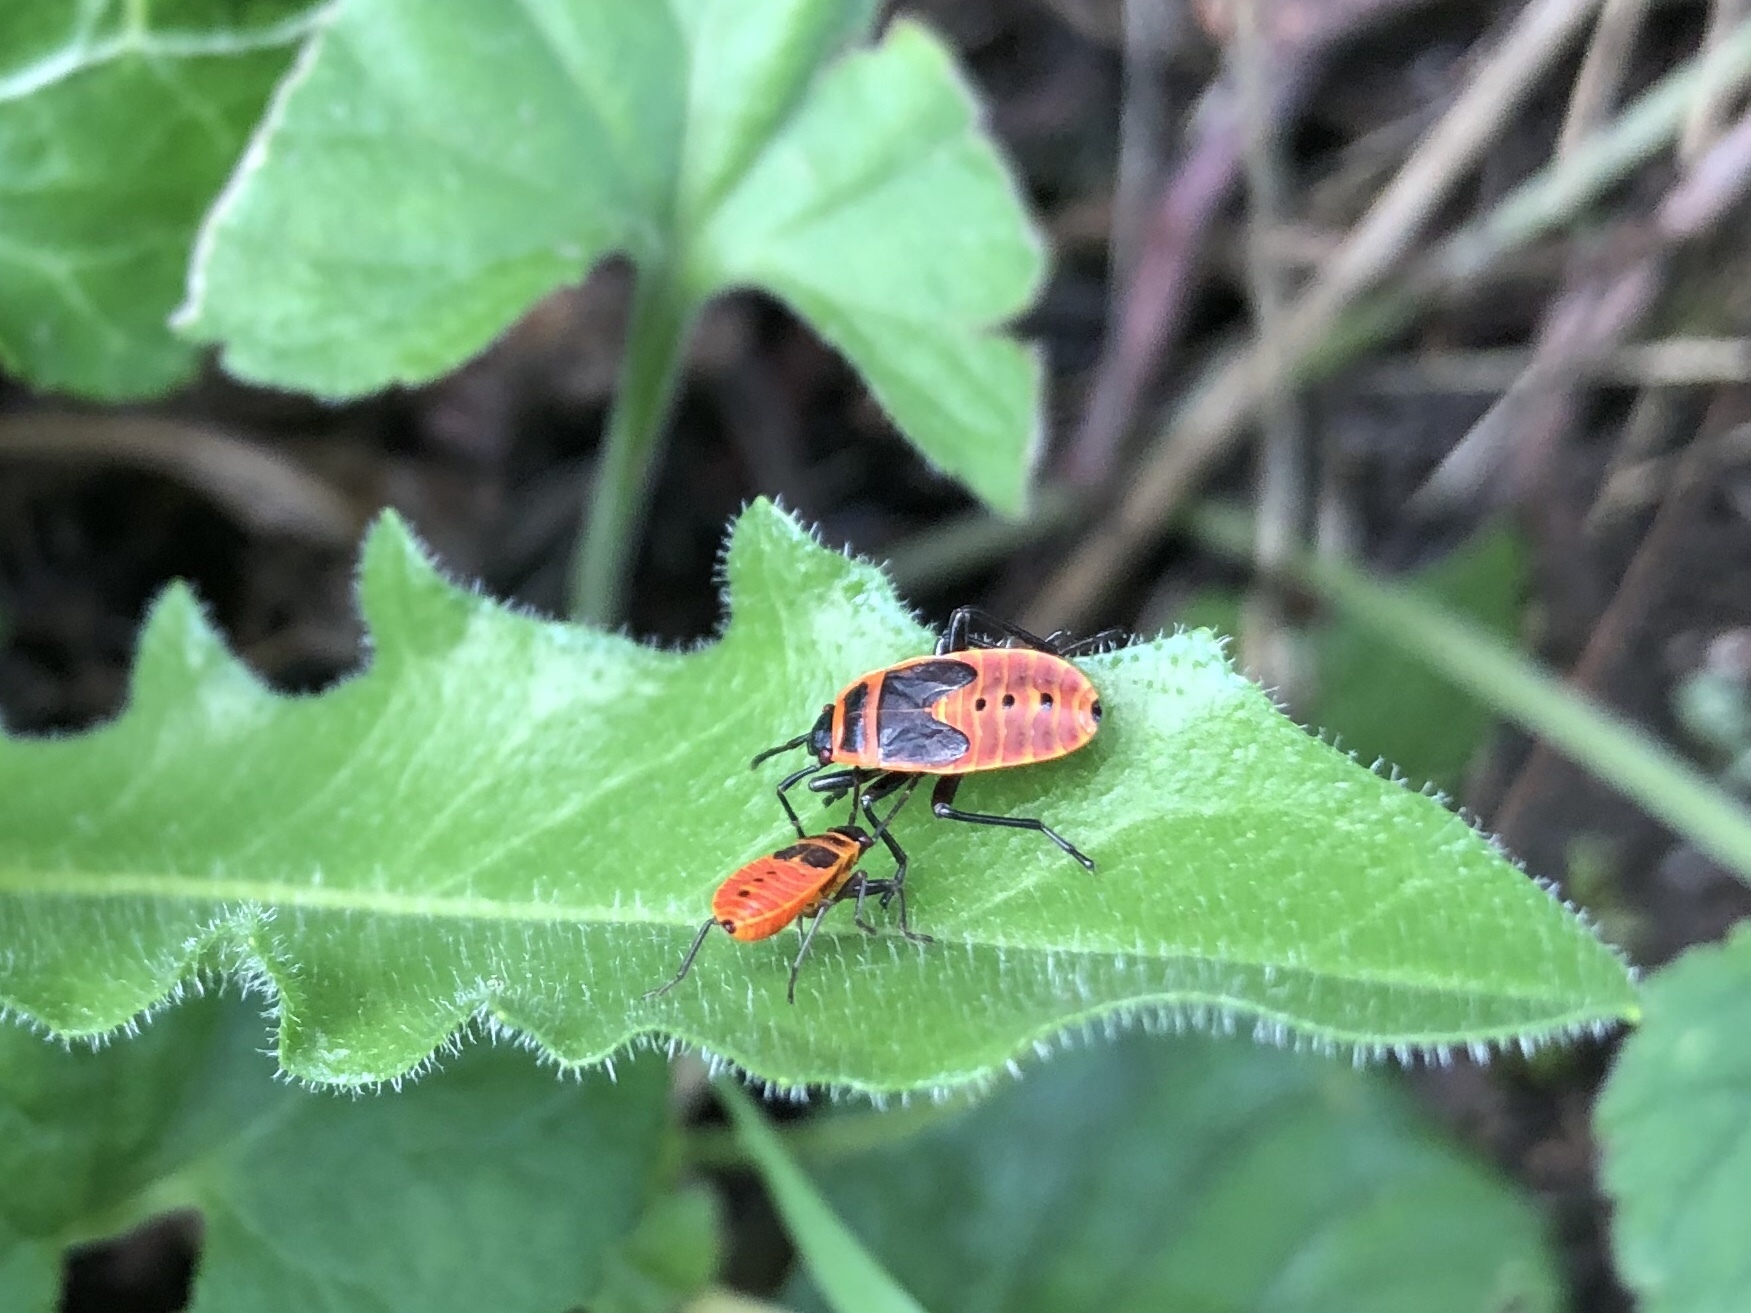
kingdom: Animalia
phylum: Arthropoda
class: Insecta
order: Hemiptera
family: Pyrrhocoridae
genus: Pyrrhocoris
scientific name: Pyrrhocoris apterus
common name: Firebug
